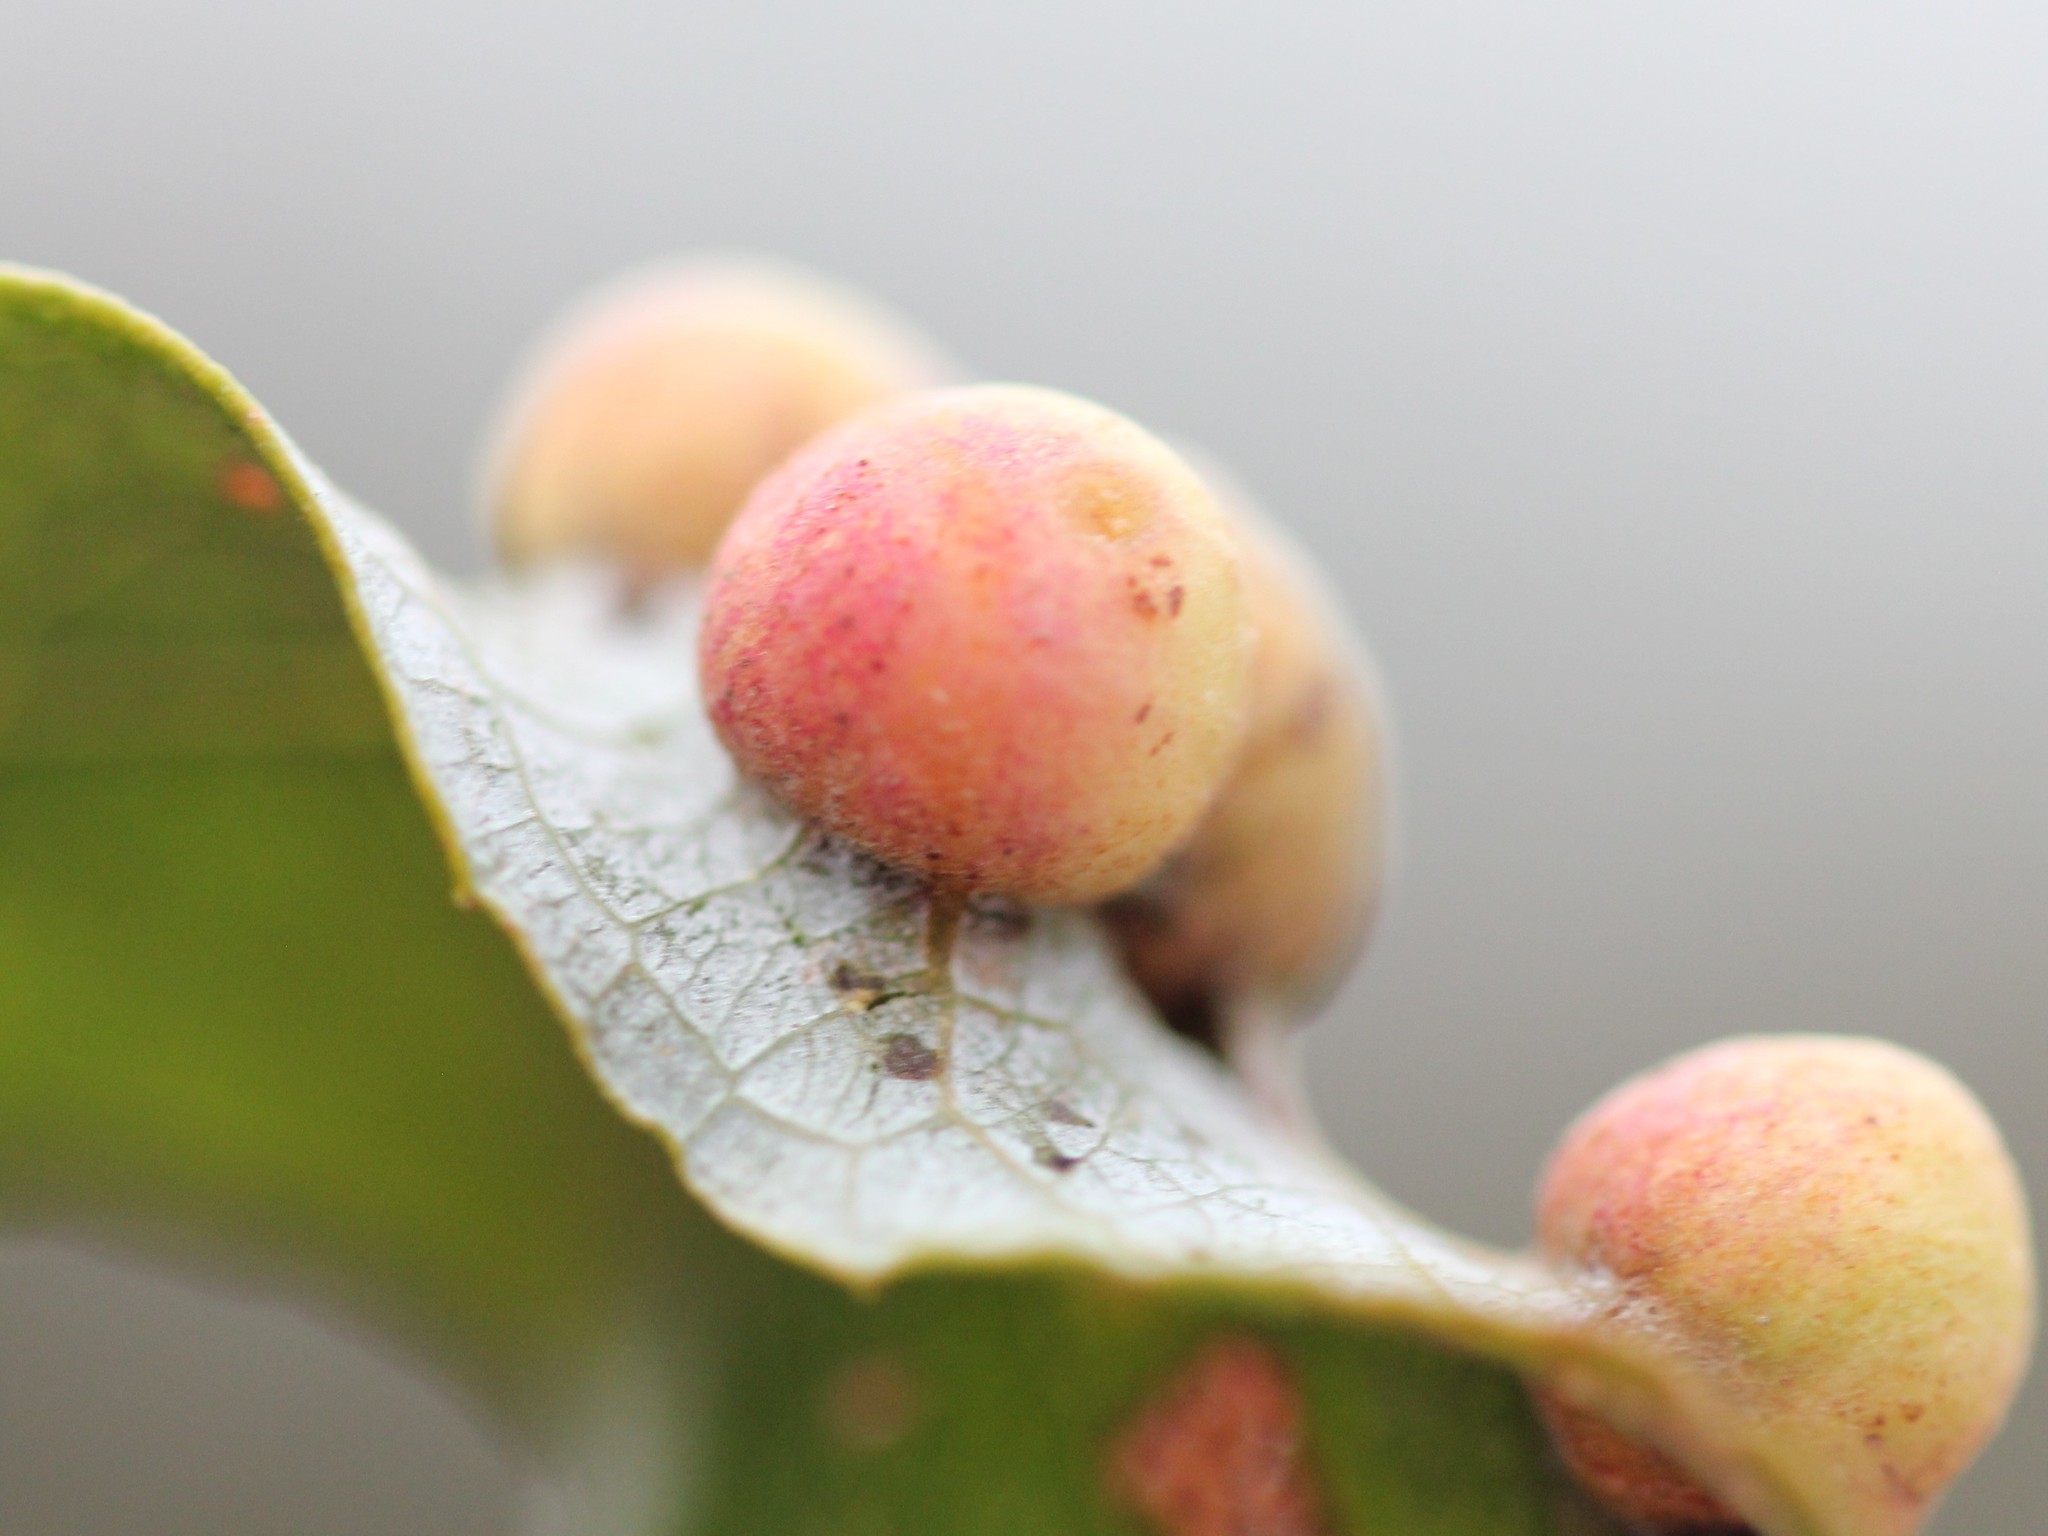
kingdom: Animalia
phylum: Arthropoda
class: Insecta
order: Hymenoptera
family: Tenthredinidae
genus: Euura
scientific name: Euura
